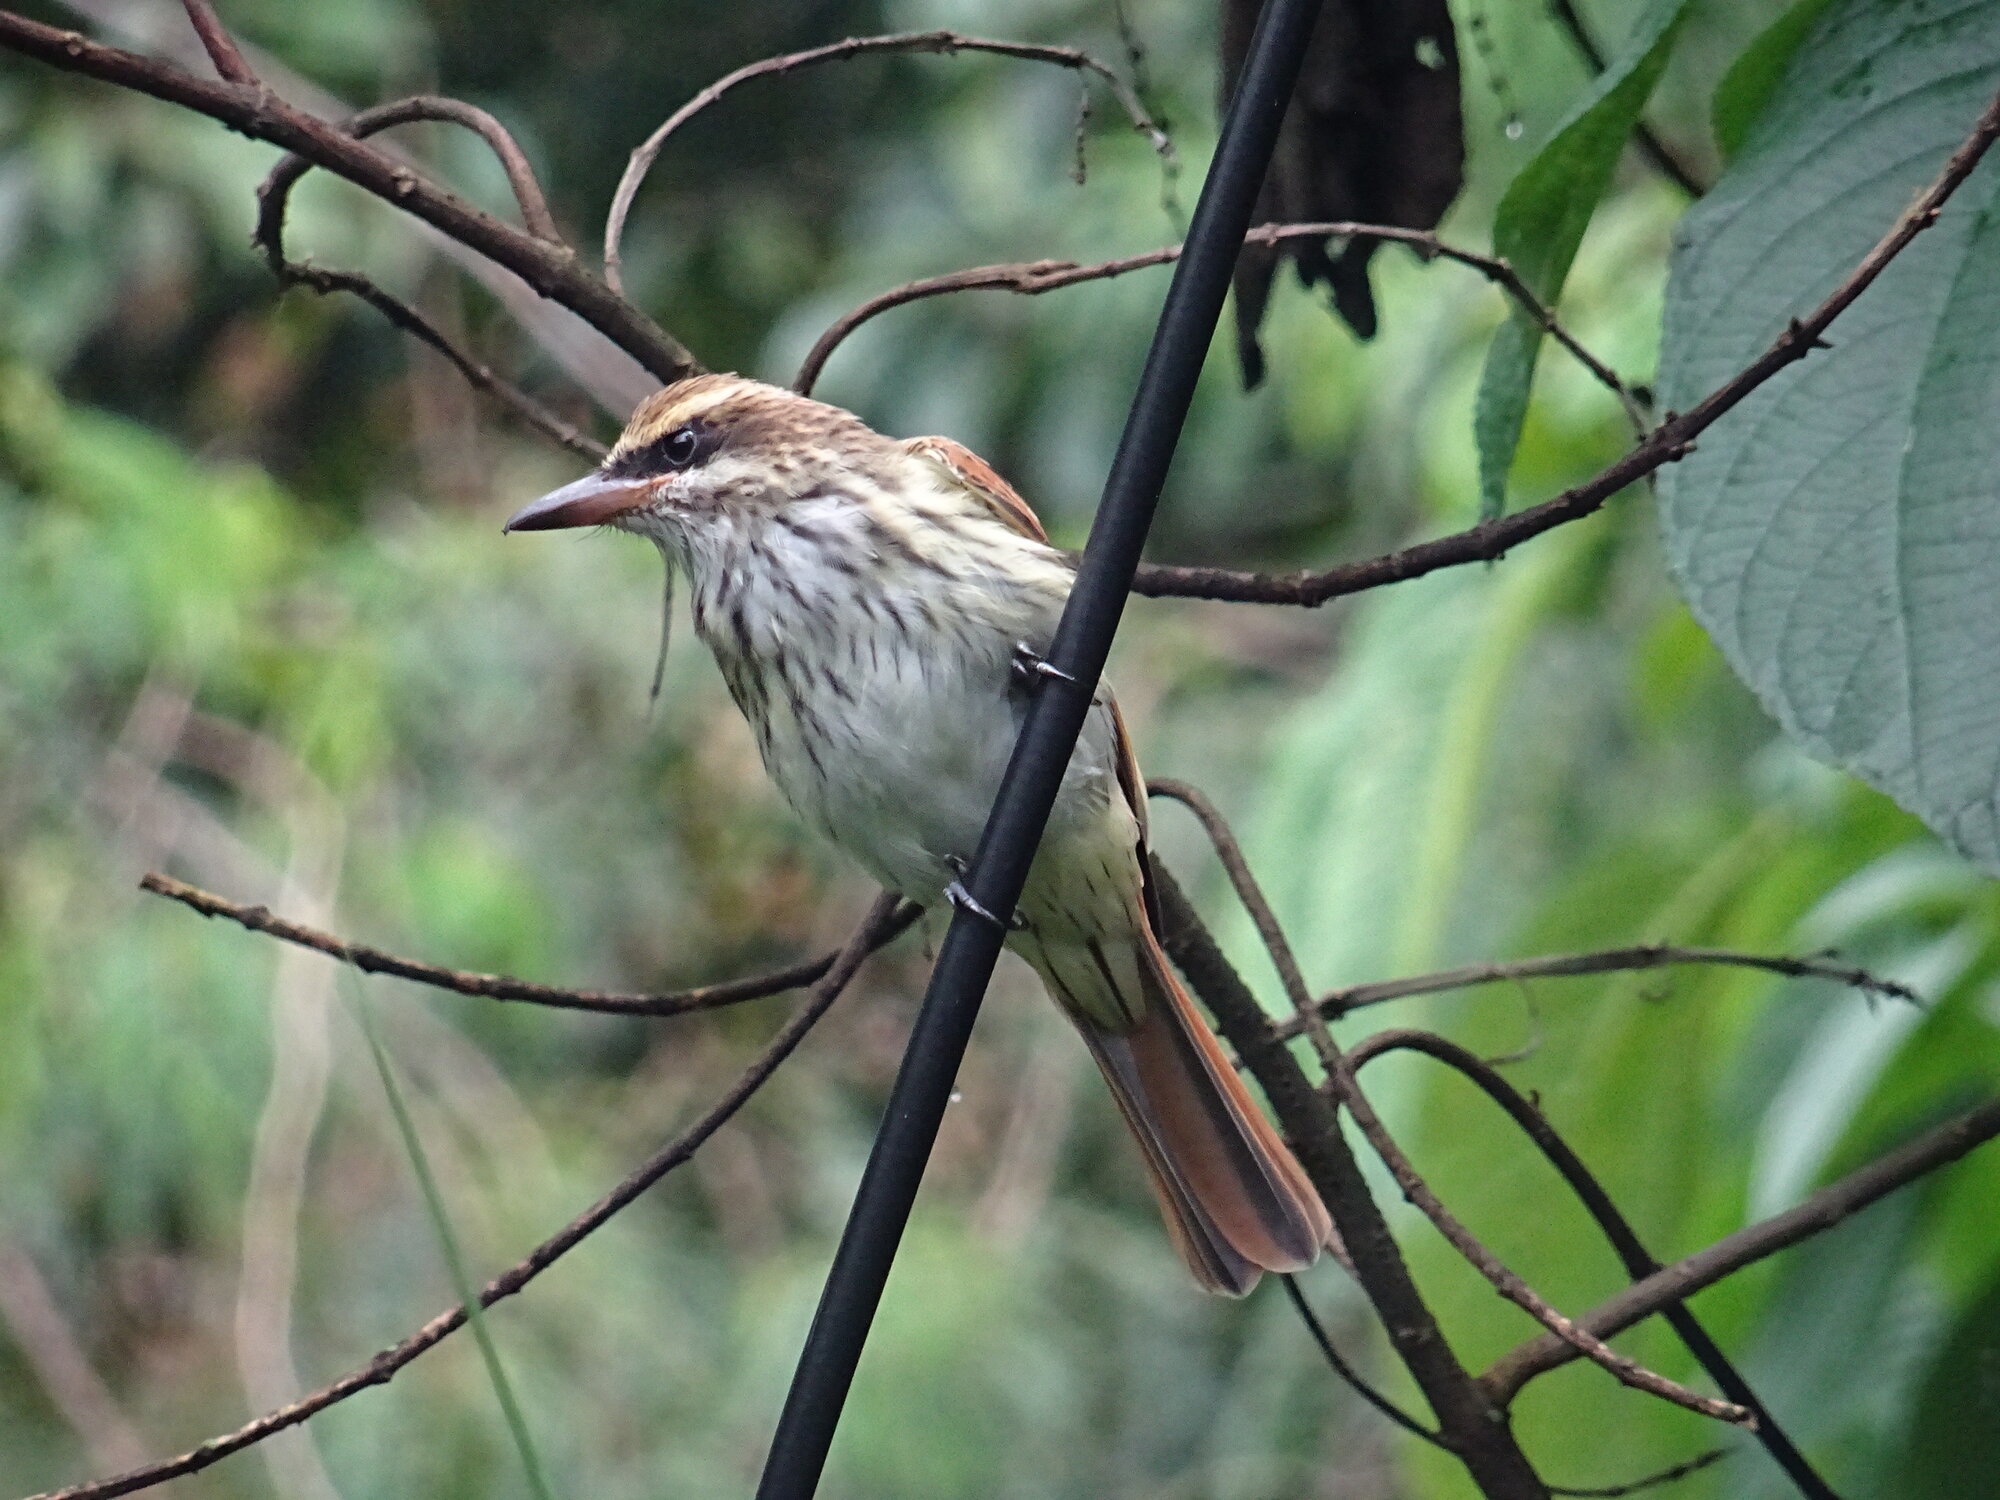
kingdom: Animalia
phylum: Chordata
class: Aves
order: Passeriformes
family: Tyrannidae
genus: Myiodynastes
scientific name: Myiodynastes maculatus
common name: Streaked flycatcher
